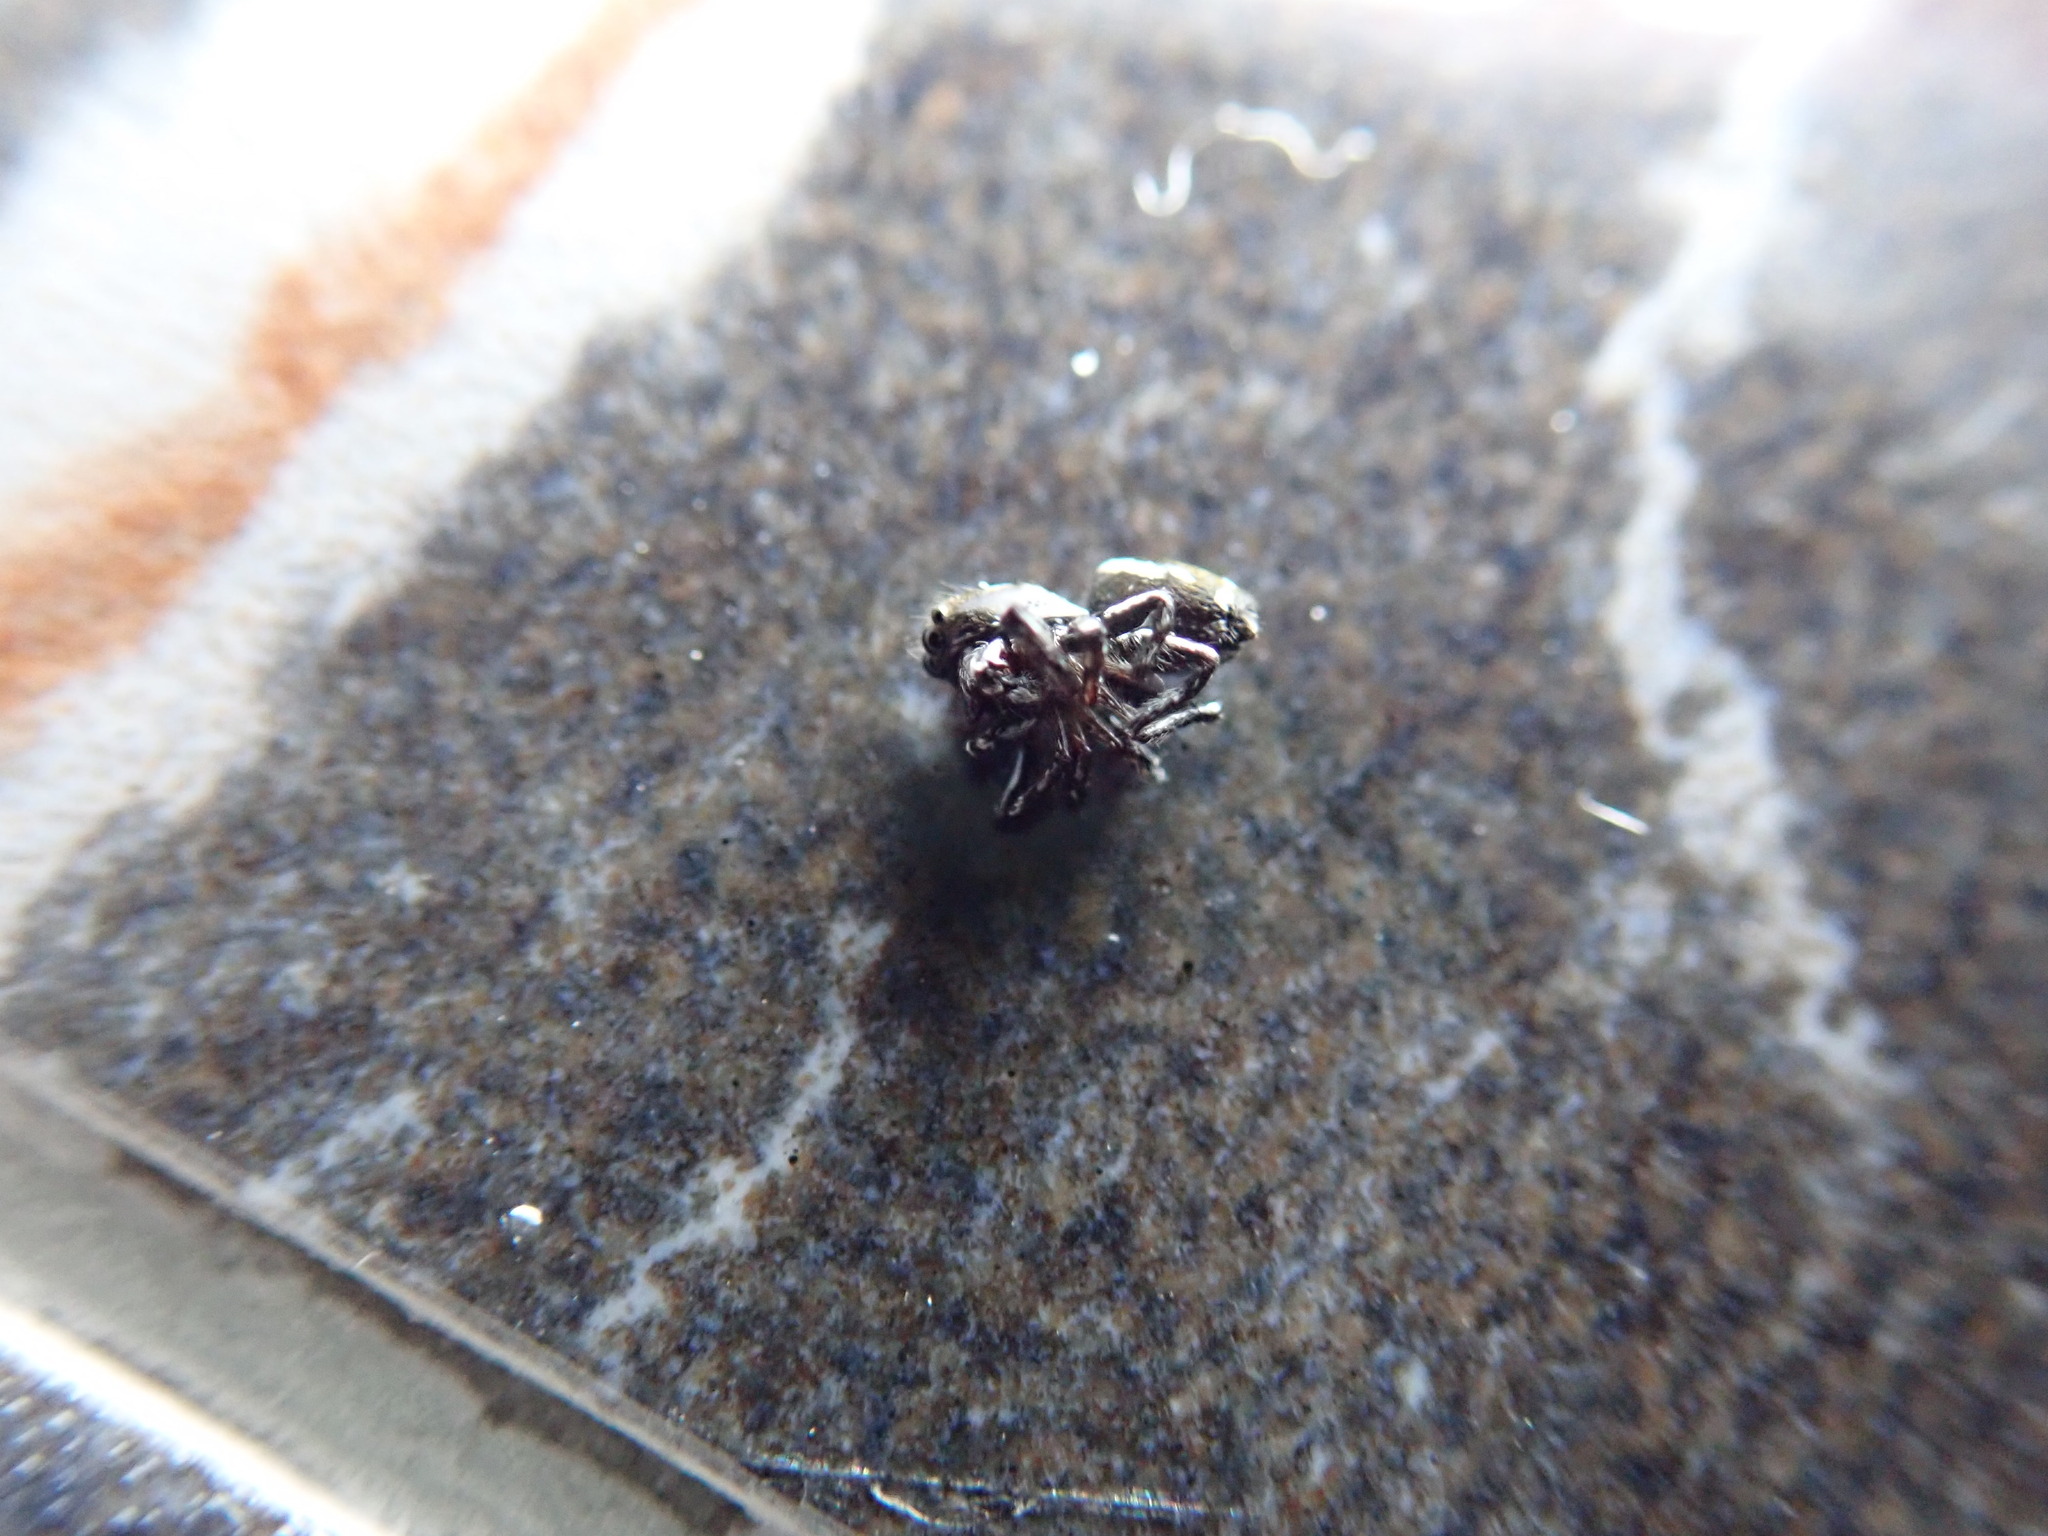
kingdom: Animalia
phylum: Arthropoda
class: Arachnida
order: Araneae
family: Salticidae
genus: Heliophanus
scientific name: Heliophanus apiatus
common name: Sun jumping spider
